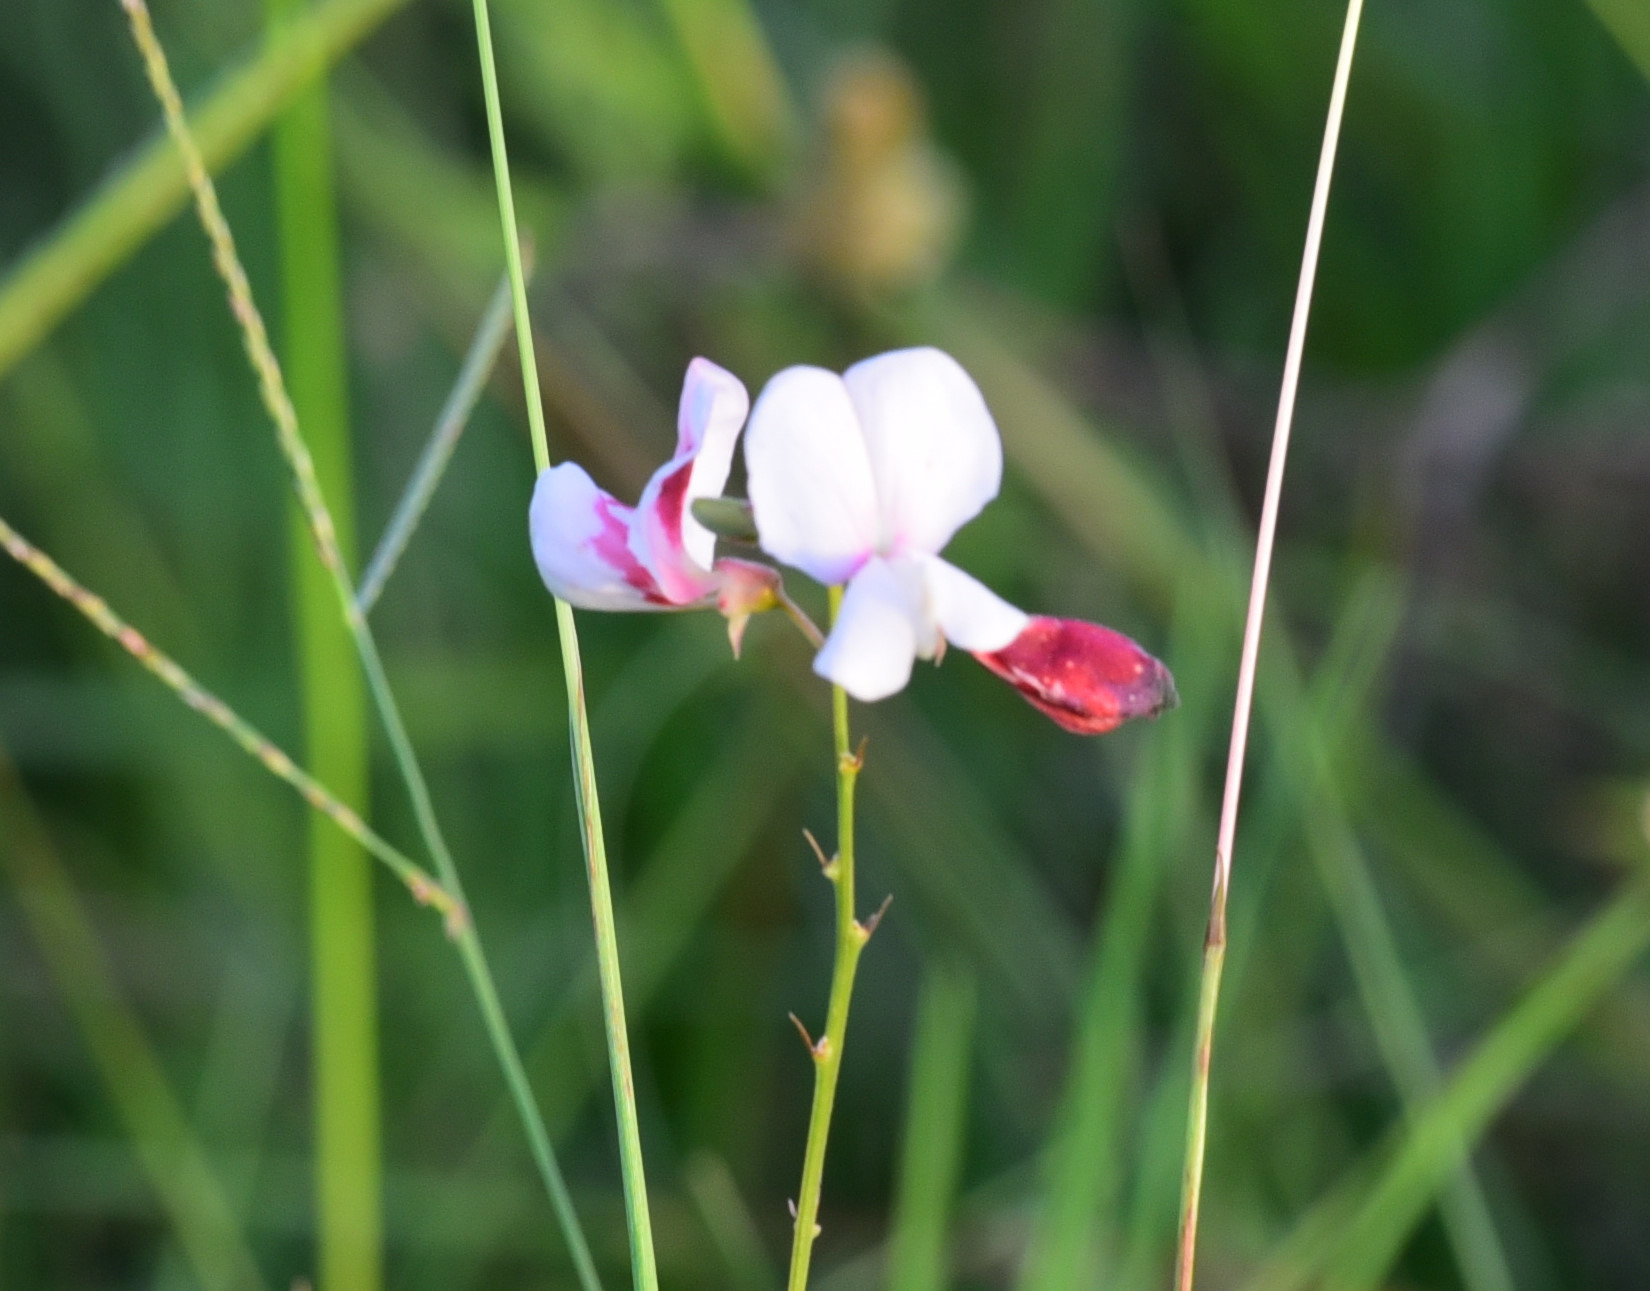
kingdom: Plantae
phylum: Tracheophyta
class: Magnoliopsida
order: Fabales
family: Fabaceae
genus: Tephrosia
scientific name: Tephrosia onobrychoides
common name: Multi-bloom hoary-pea
